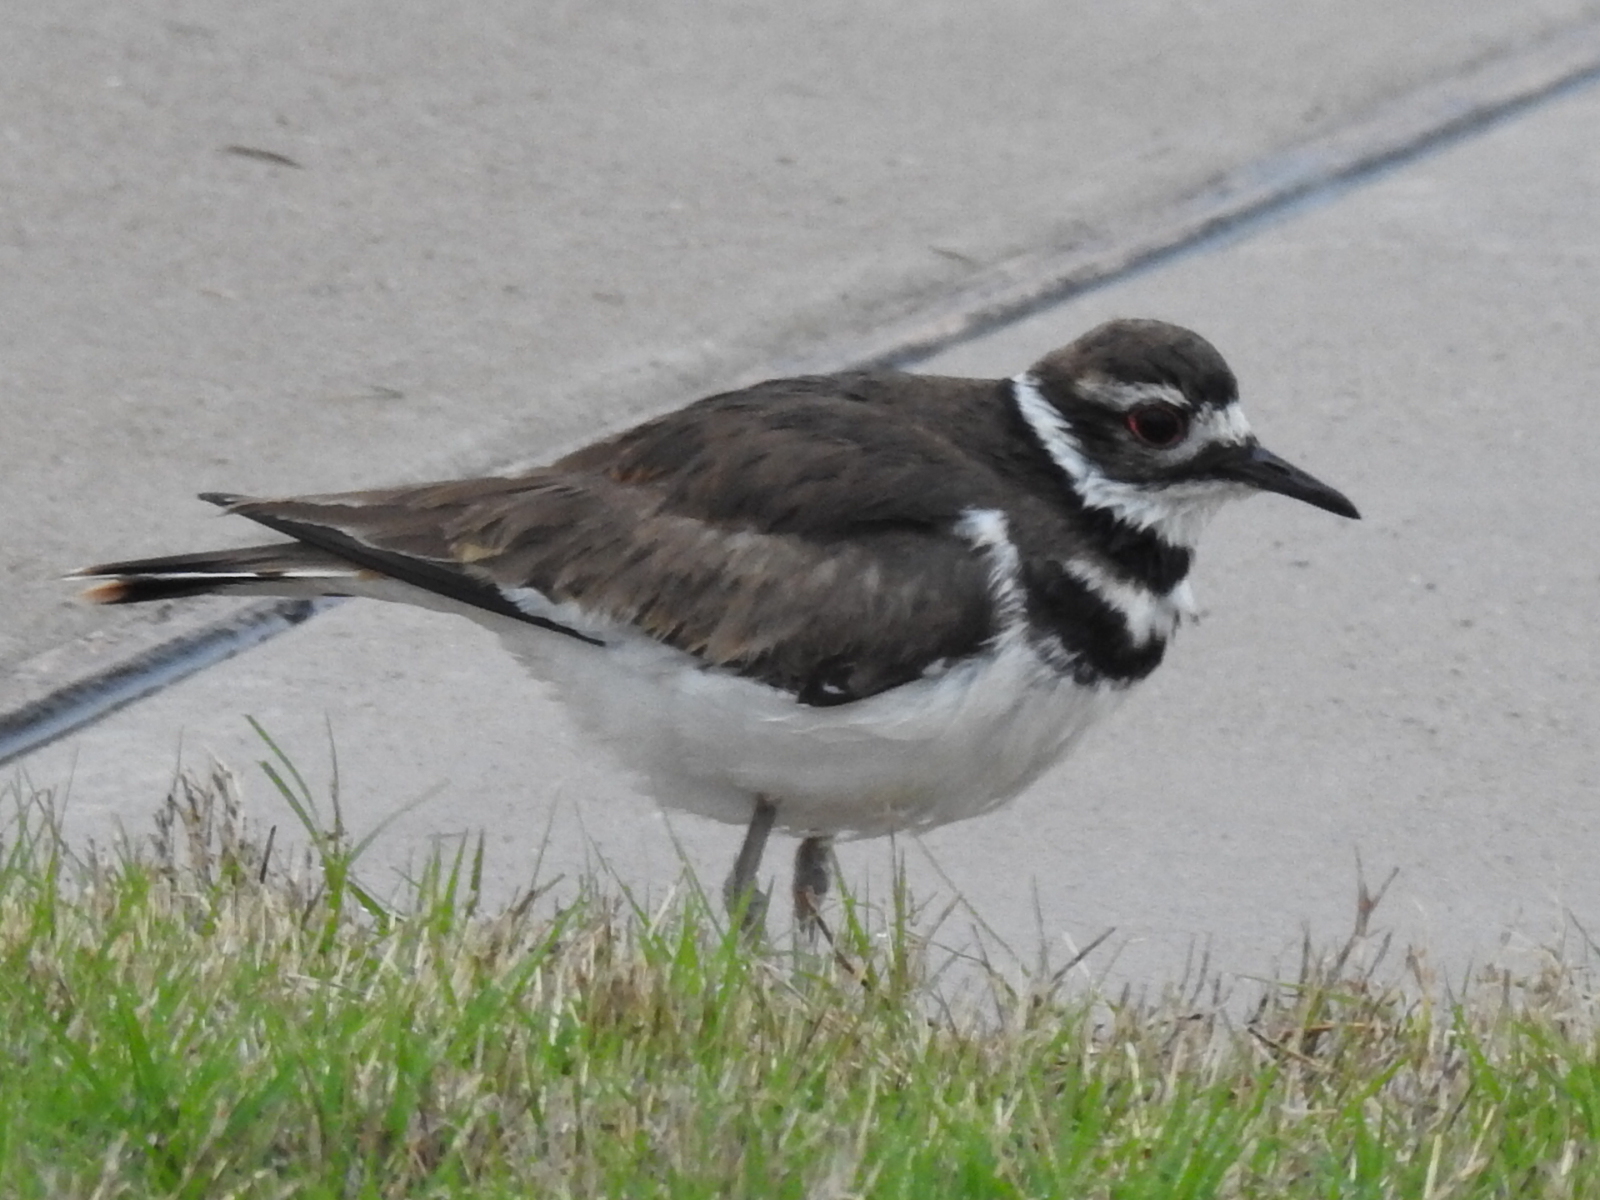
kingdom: Animalia
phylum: Chordata
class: Aves
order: Charadriiformes
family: Charadriidae
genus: Charadrius
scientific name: Charadrius vociferus
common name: Killdeer
